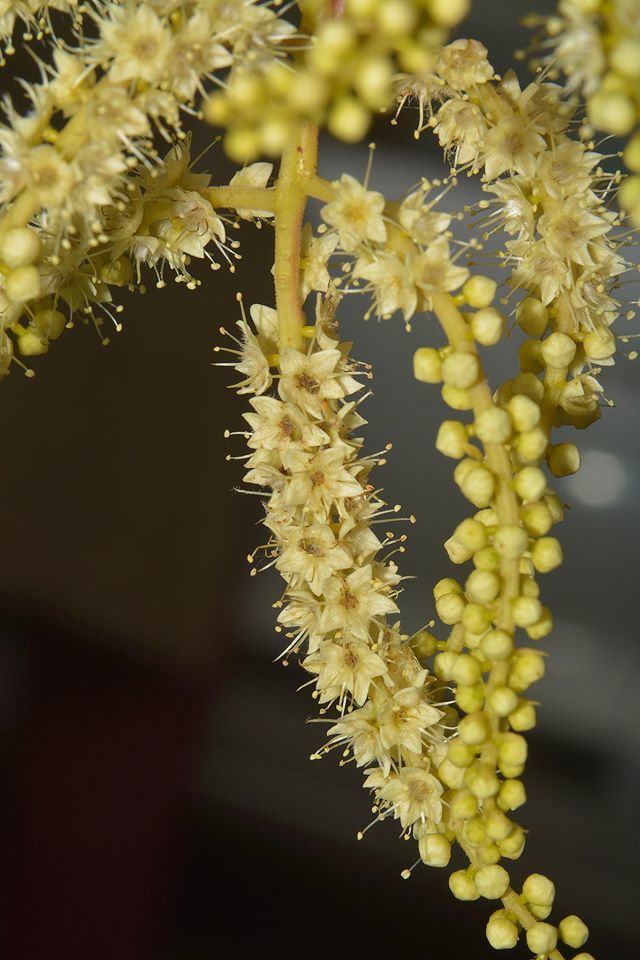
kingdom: Plantae
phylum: Tracheophyta
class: Magnoliopsida
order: Myrtales
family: Combretaceae
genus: Terminalia
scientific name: Terminalia chebula
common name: Myrobalan
